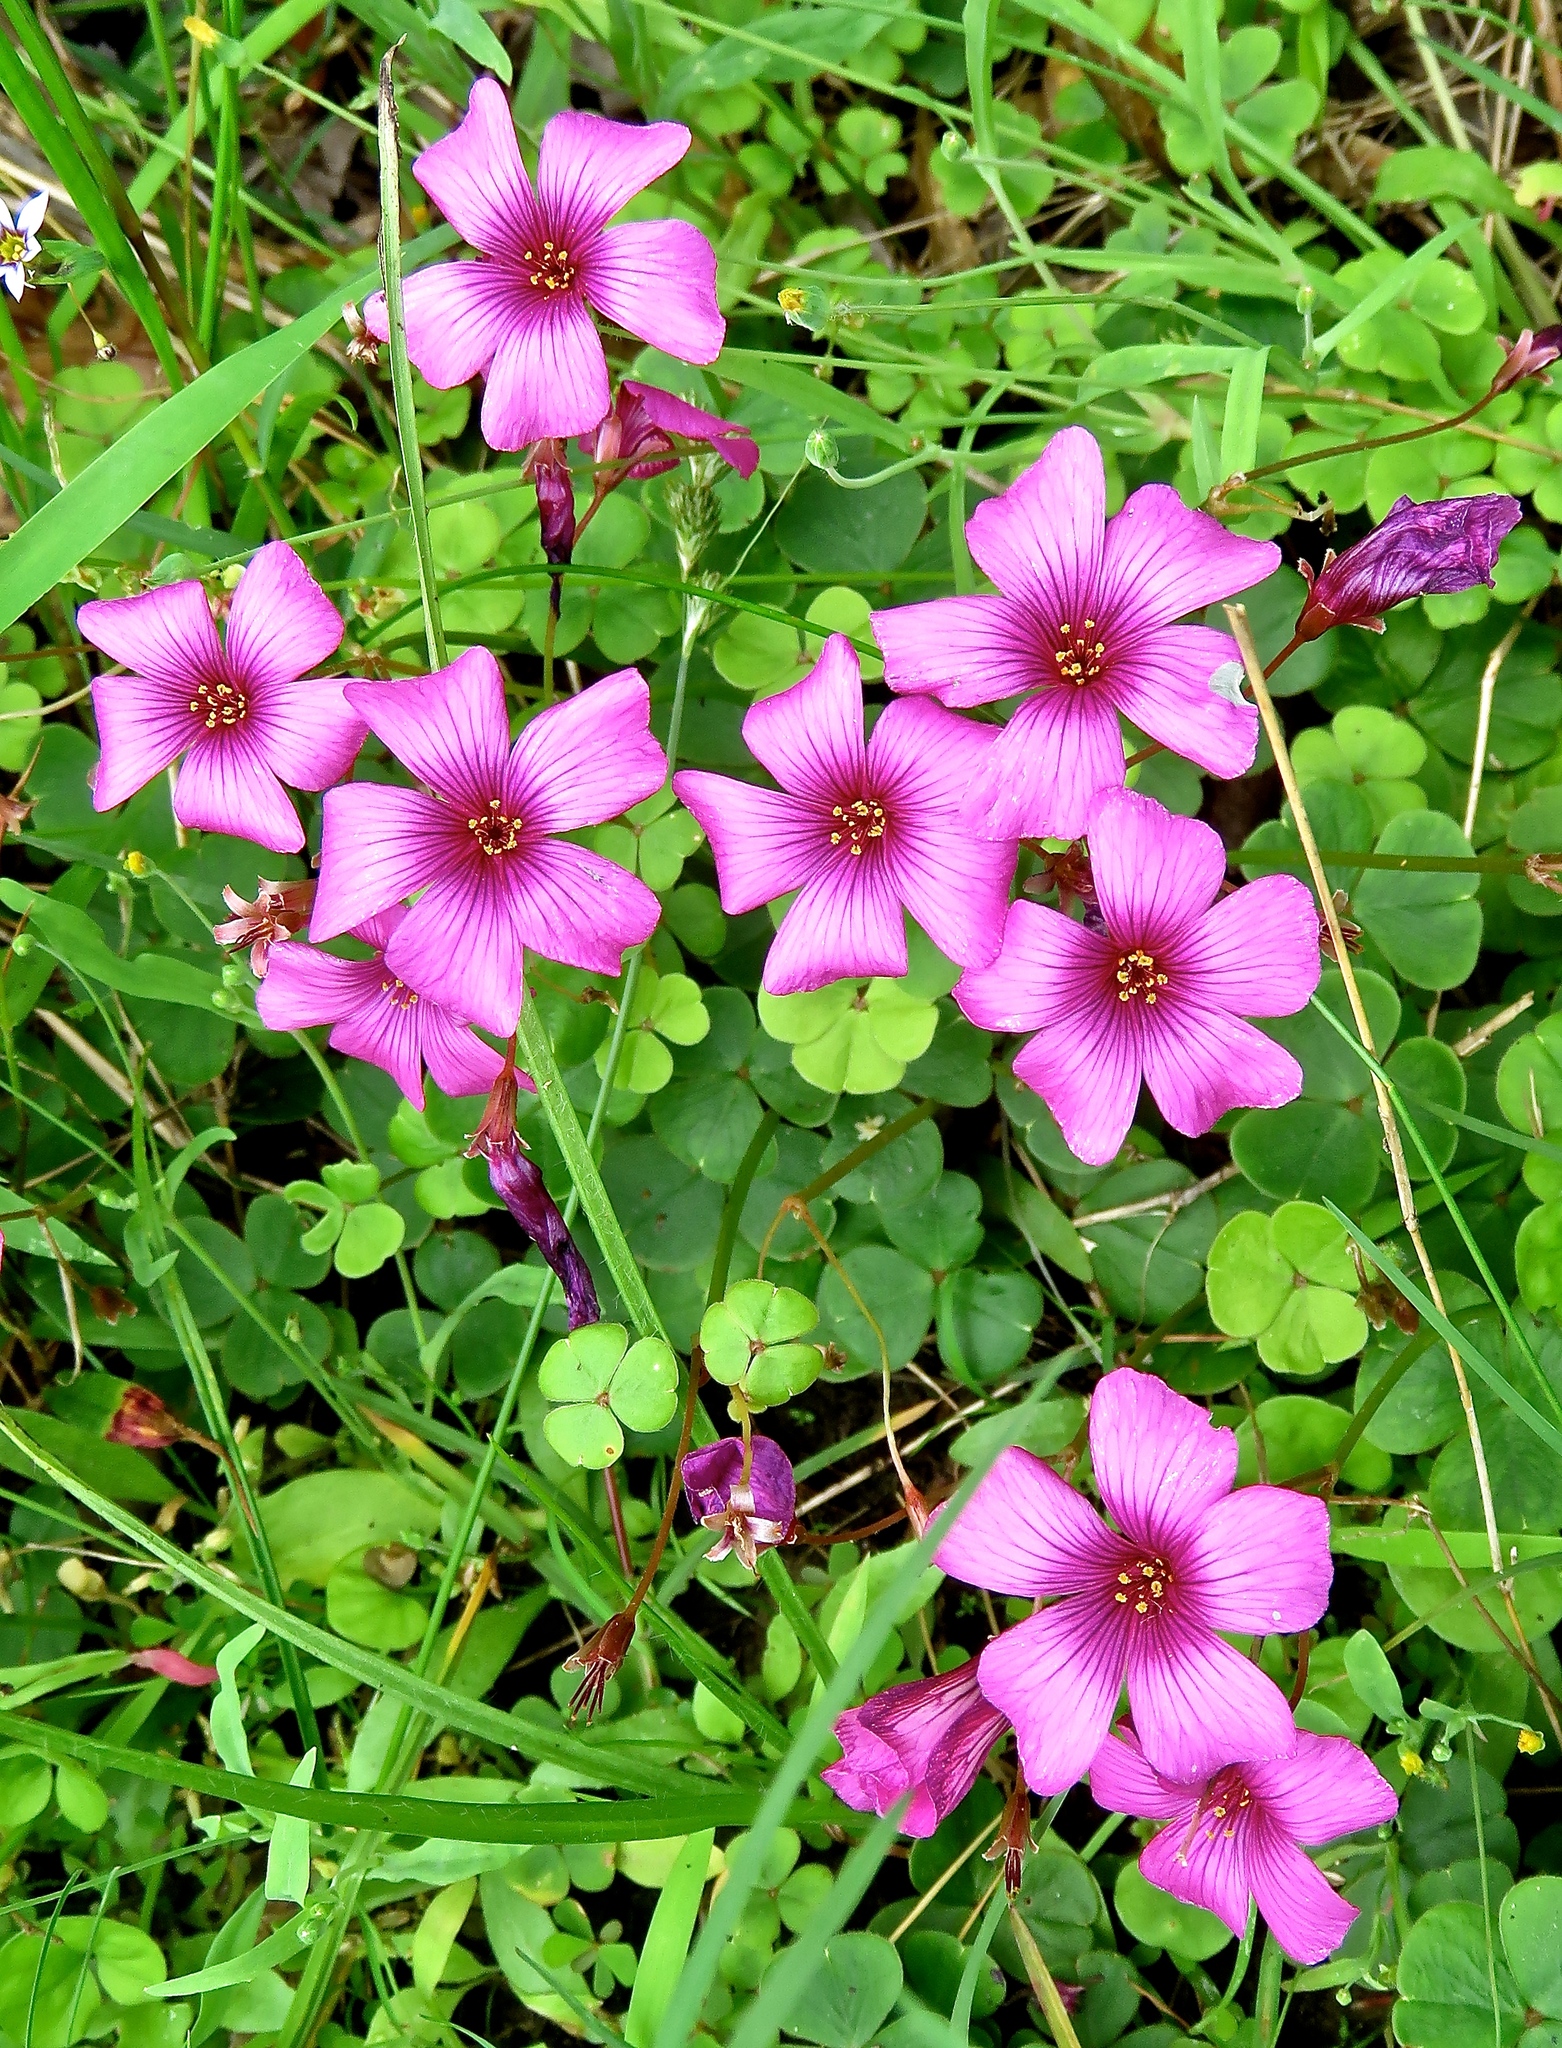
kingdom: Plantae
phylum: Tracheophyta
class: Magnoliopsida
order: Oxalidales
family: Oxalidaceae
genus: Oxalis
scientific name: Oxalis brasiliensis
